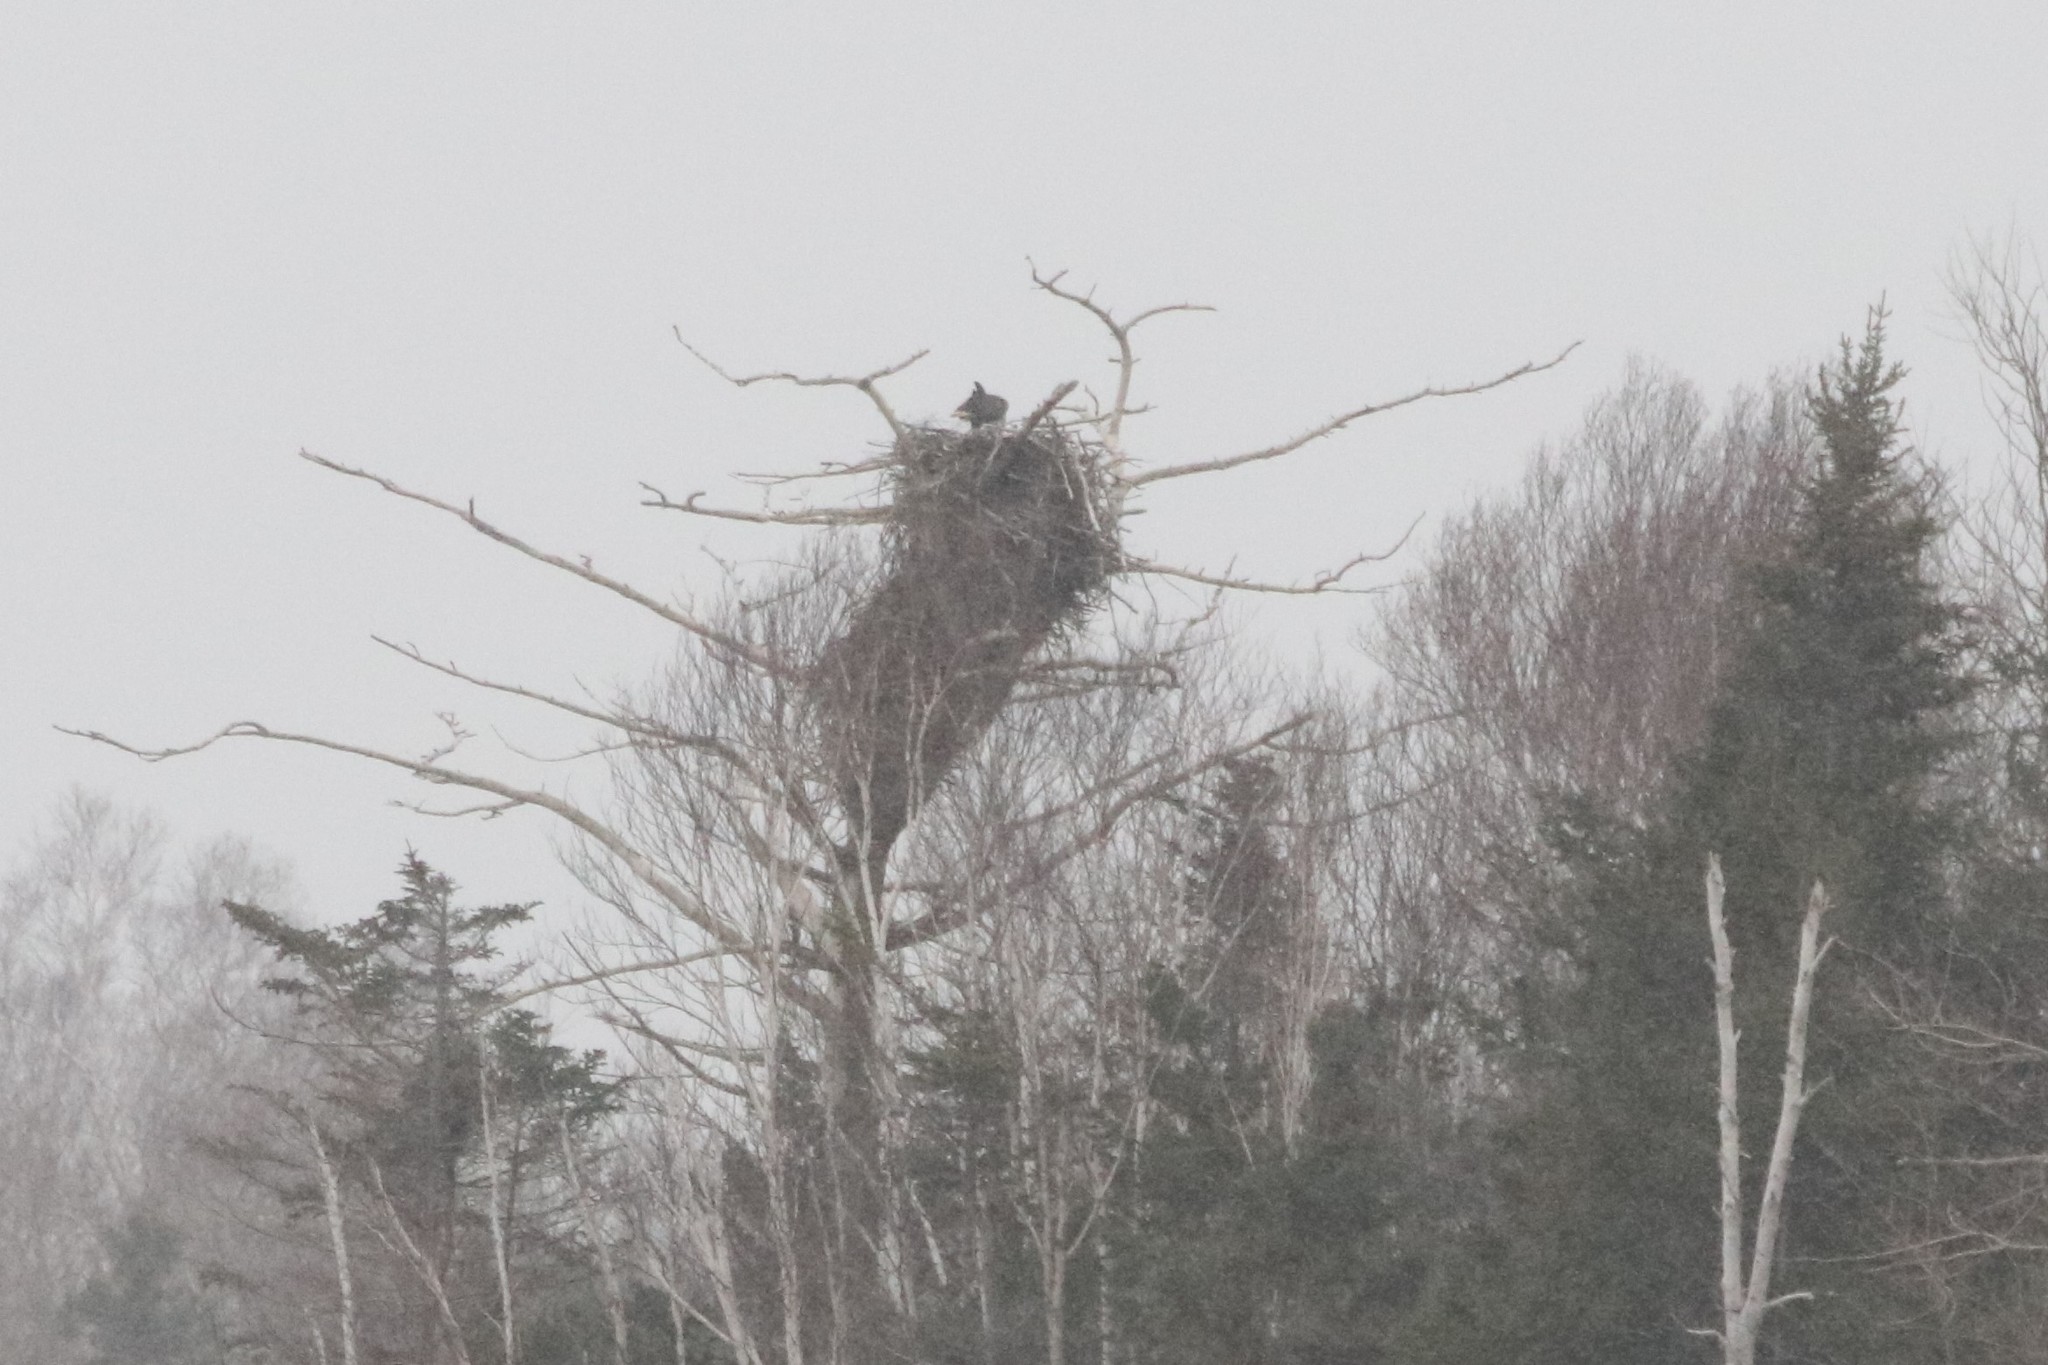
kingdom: Animalia
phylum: Chordata
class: Aves
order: Accipitriformes
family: Accipitridae
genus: Haliaeetus
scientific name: Haliaeetus leucocephalus
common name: Bald eagle
